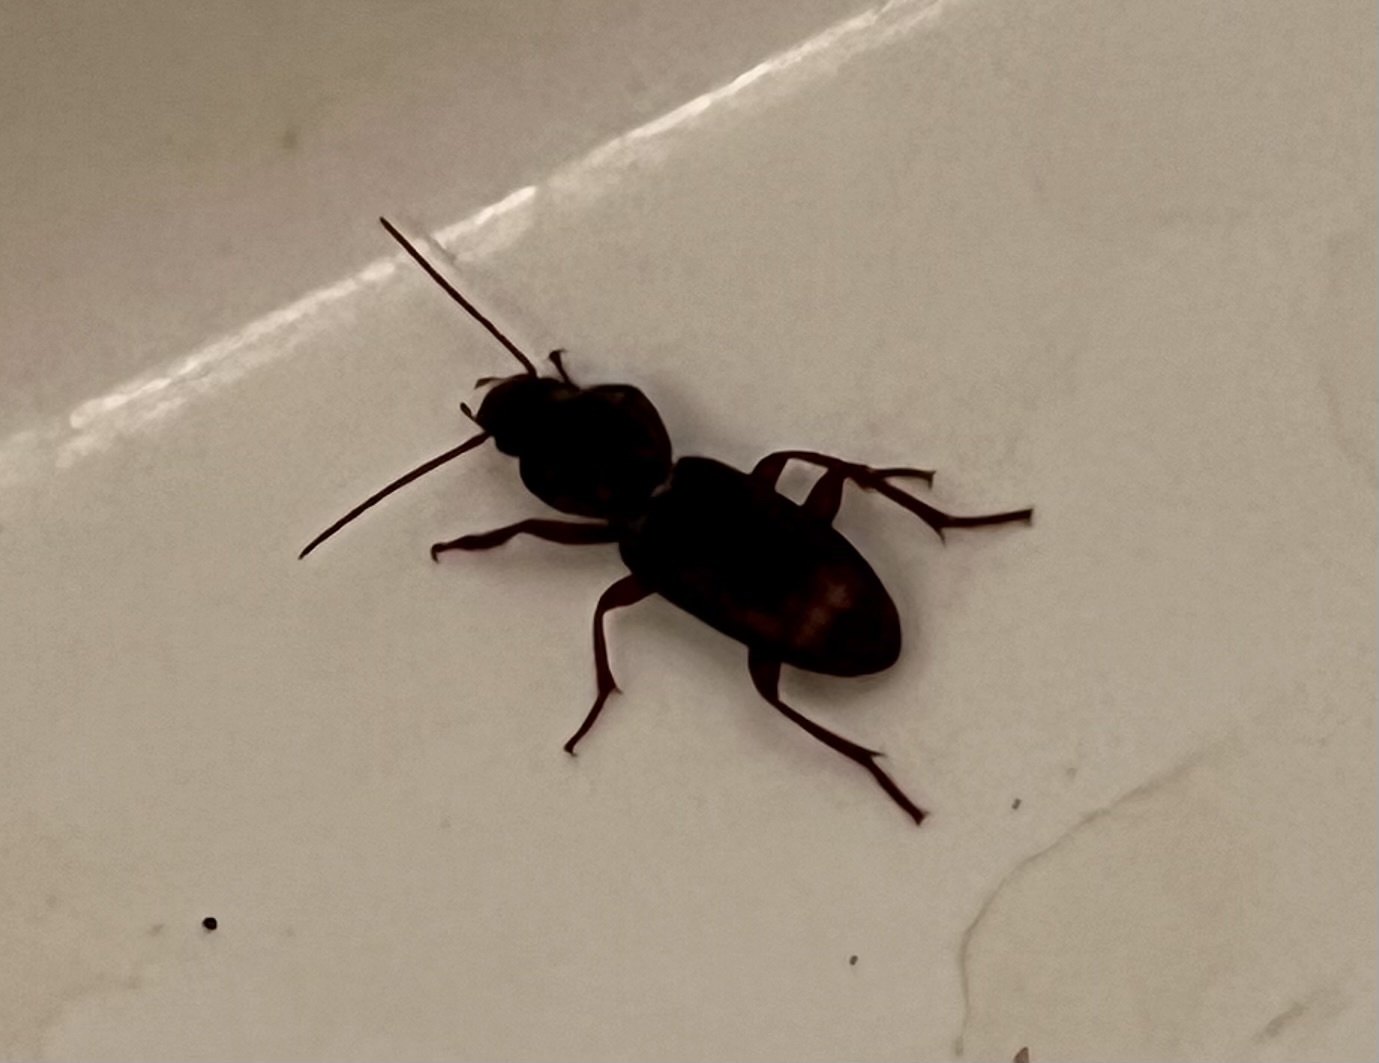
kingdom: Animalia
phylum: Arthropoda
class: Insecta
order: Coleoptera
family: Carabidae
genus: Stenomorphus
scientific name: Stenomorphus californicus
